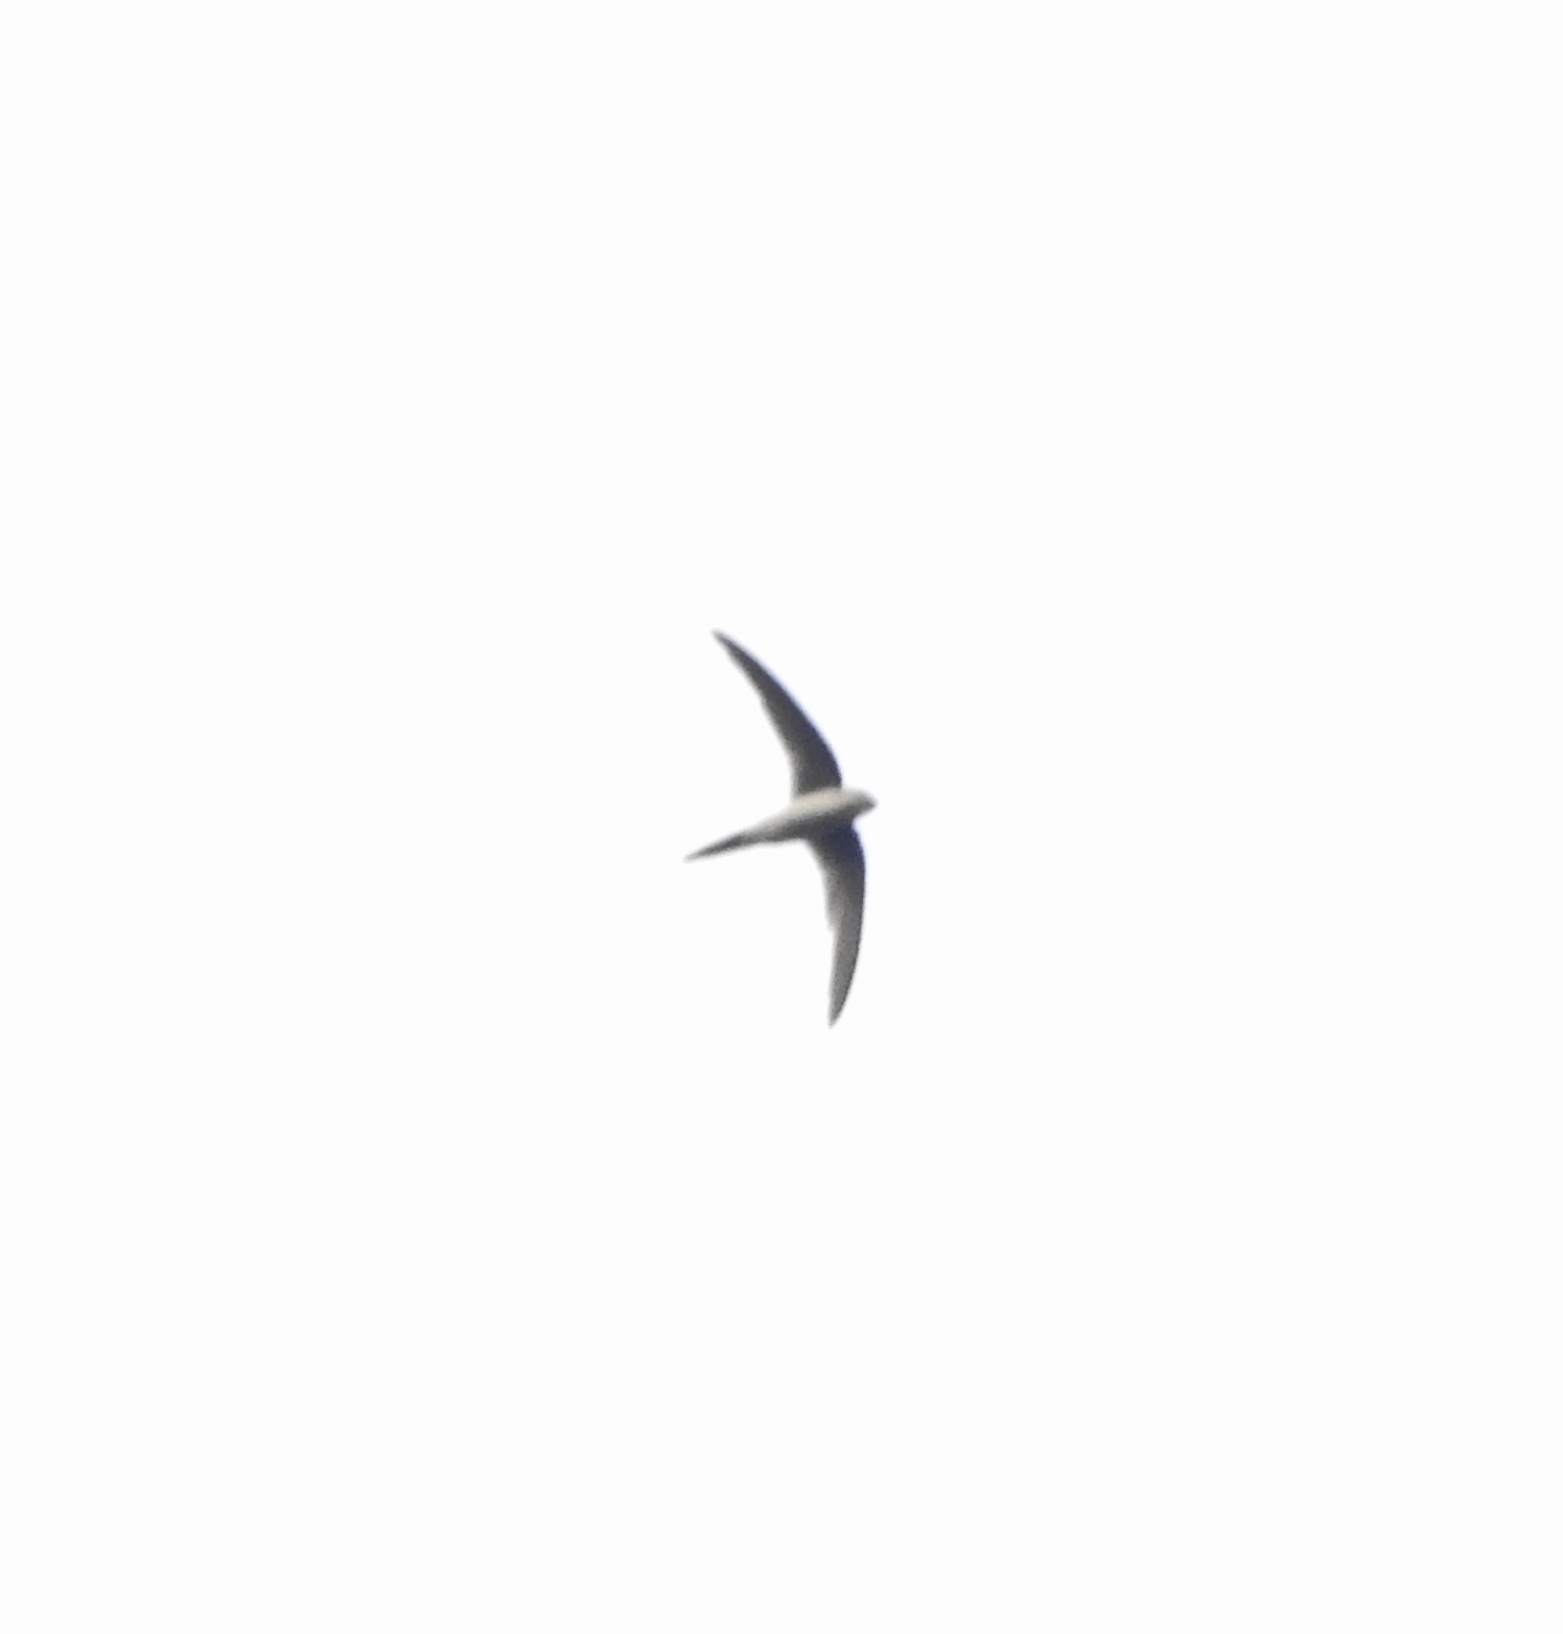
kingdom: Animalia
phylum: Chordata
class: Aves
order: Apodiformes
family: Apodidae
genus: Cypsiurus
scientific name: Cypsiurus balasiensis
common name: Asian palm swift
